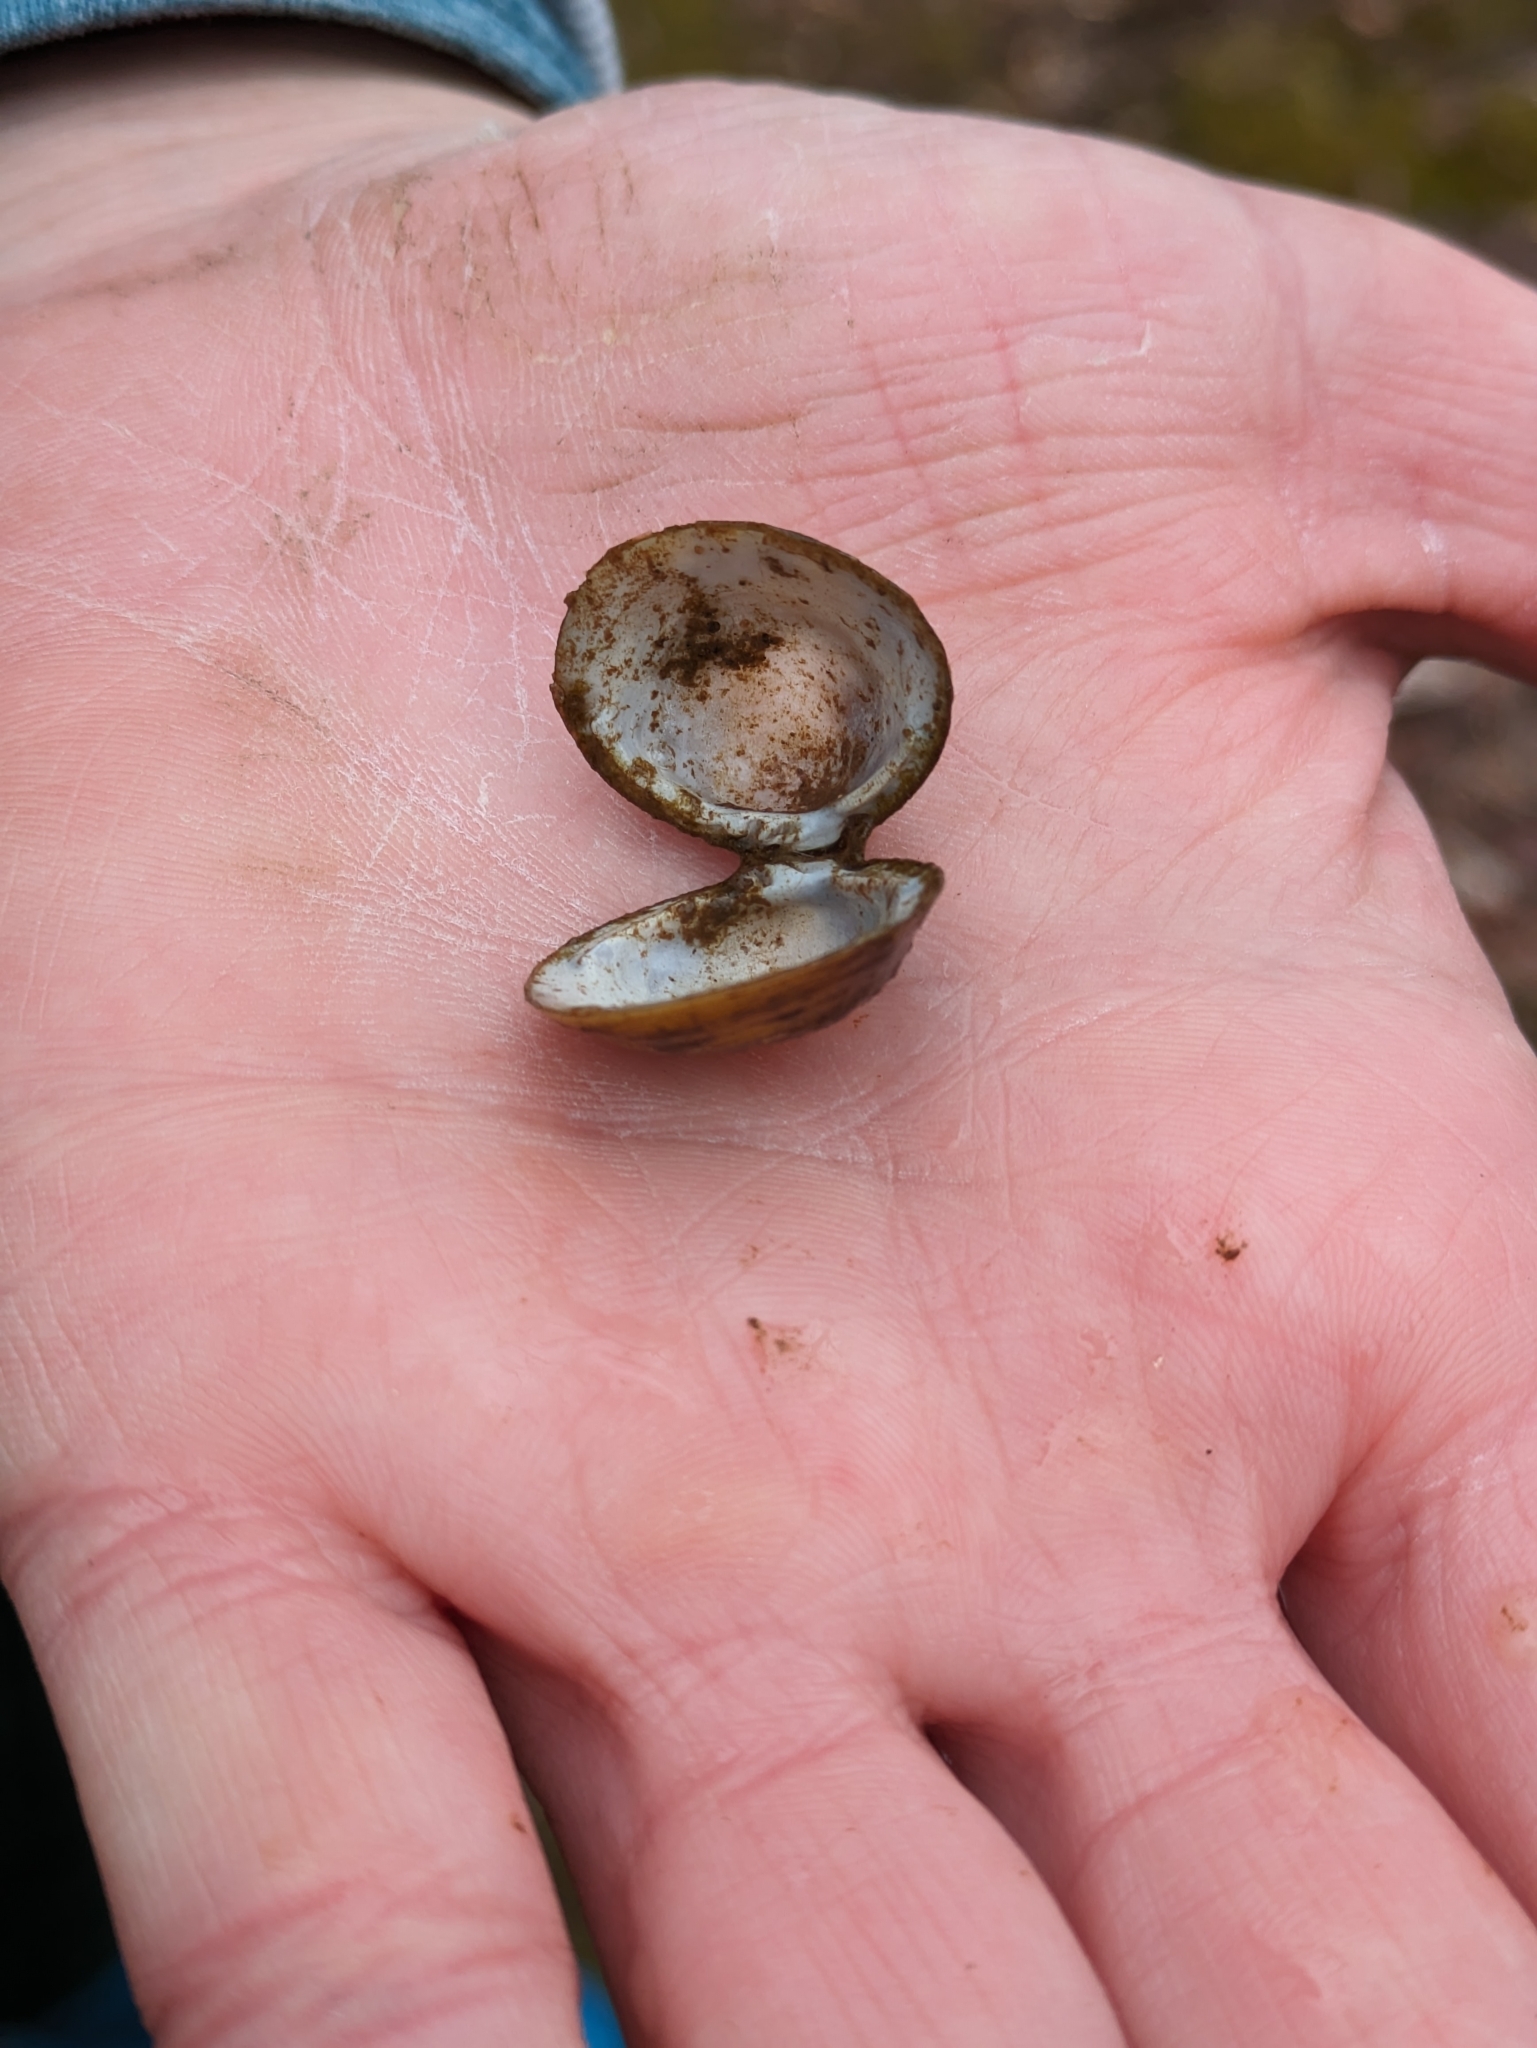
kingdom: Animalia
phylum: Mollusca
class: Bivalvia
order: Venerida
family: Cyrenidae
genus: Corbicula
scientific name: Corbicula fluminea
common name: Asian clam
